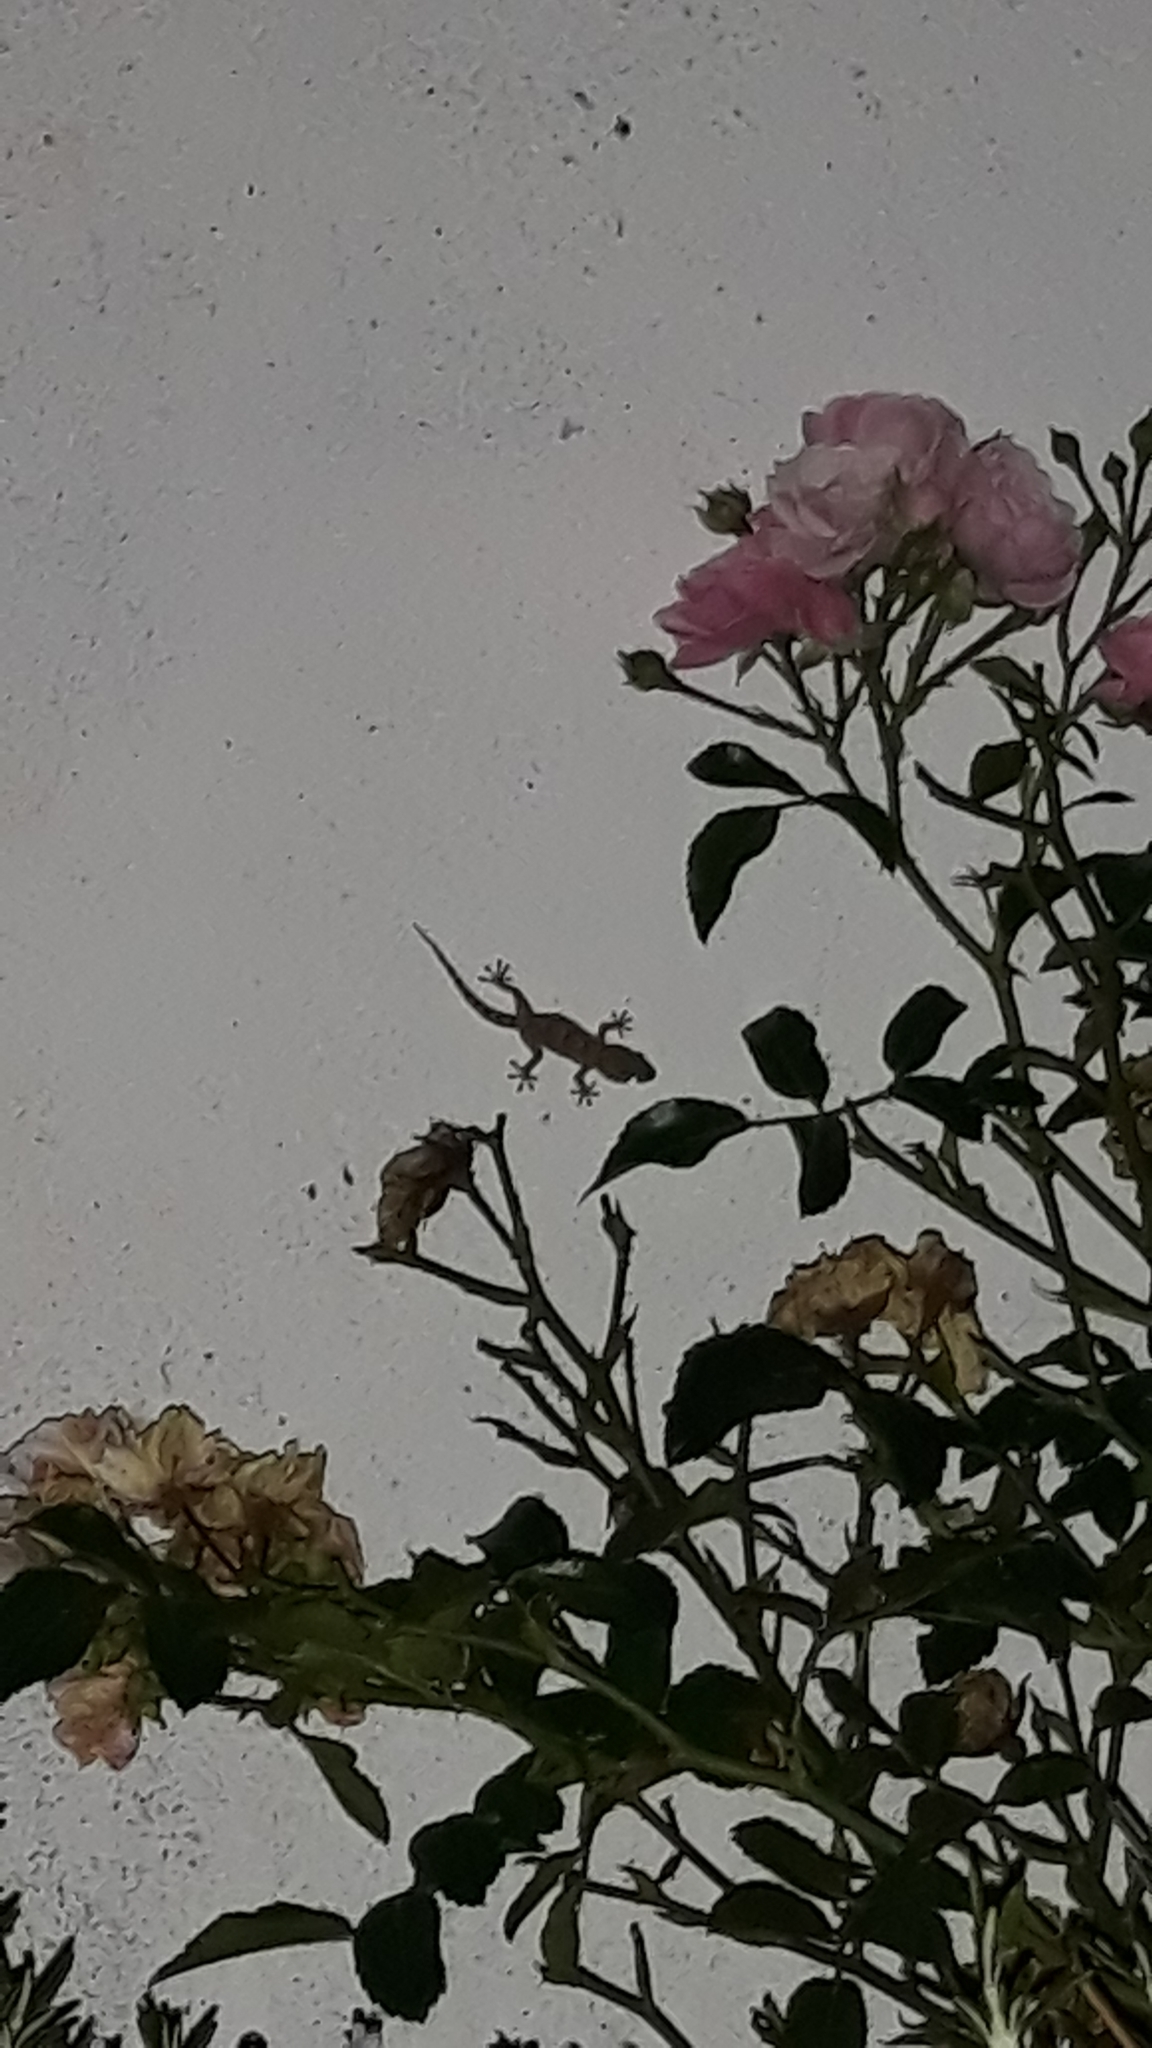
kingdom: Animalia
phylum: Chordata
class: Squamata
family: Phyllodactylidae
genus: Tarentola
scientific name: Tarentola mauritanica
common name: Moorish gecko
